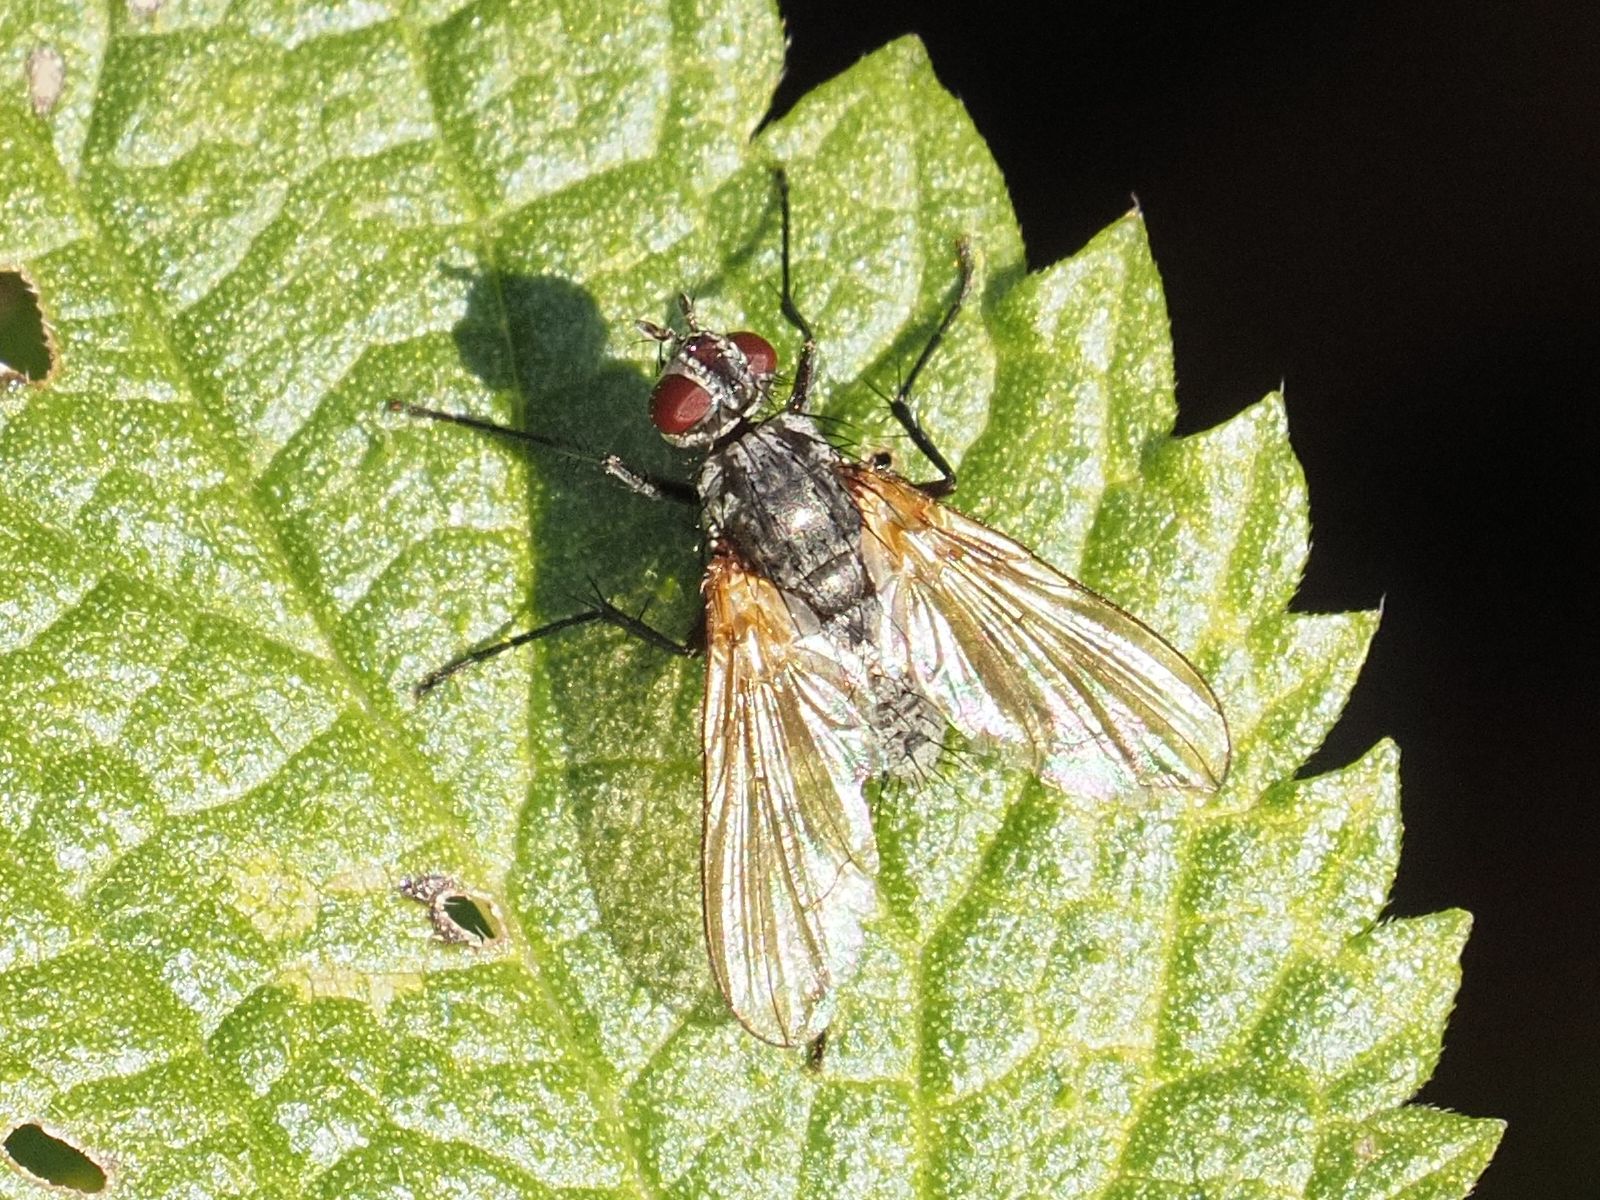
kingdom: Animalia
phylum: Arthropoda
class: Insecta
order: Diptera
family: Tachinidae
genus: Macquartia
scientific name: Macquartia grisea
